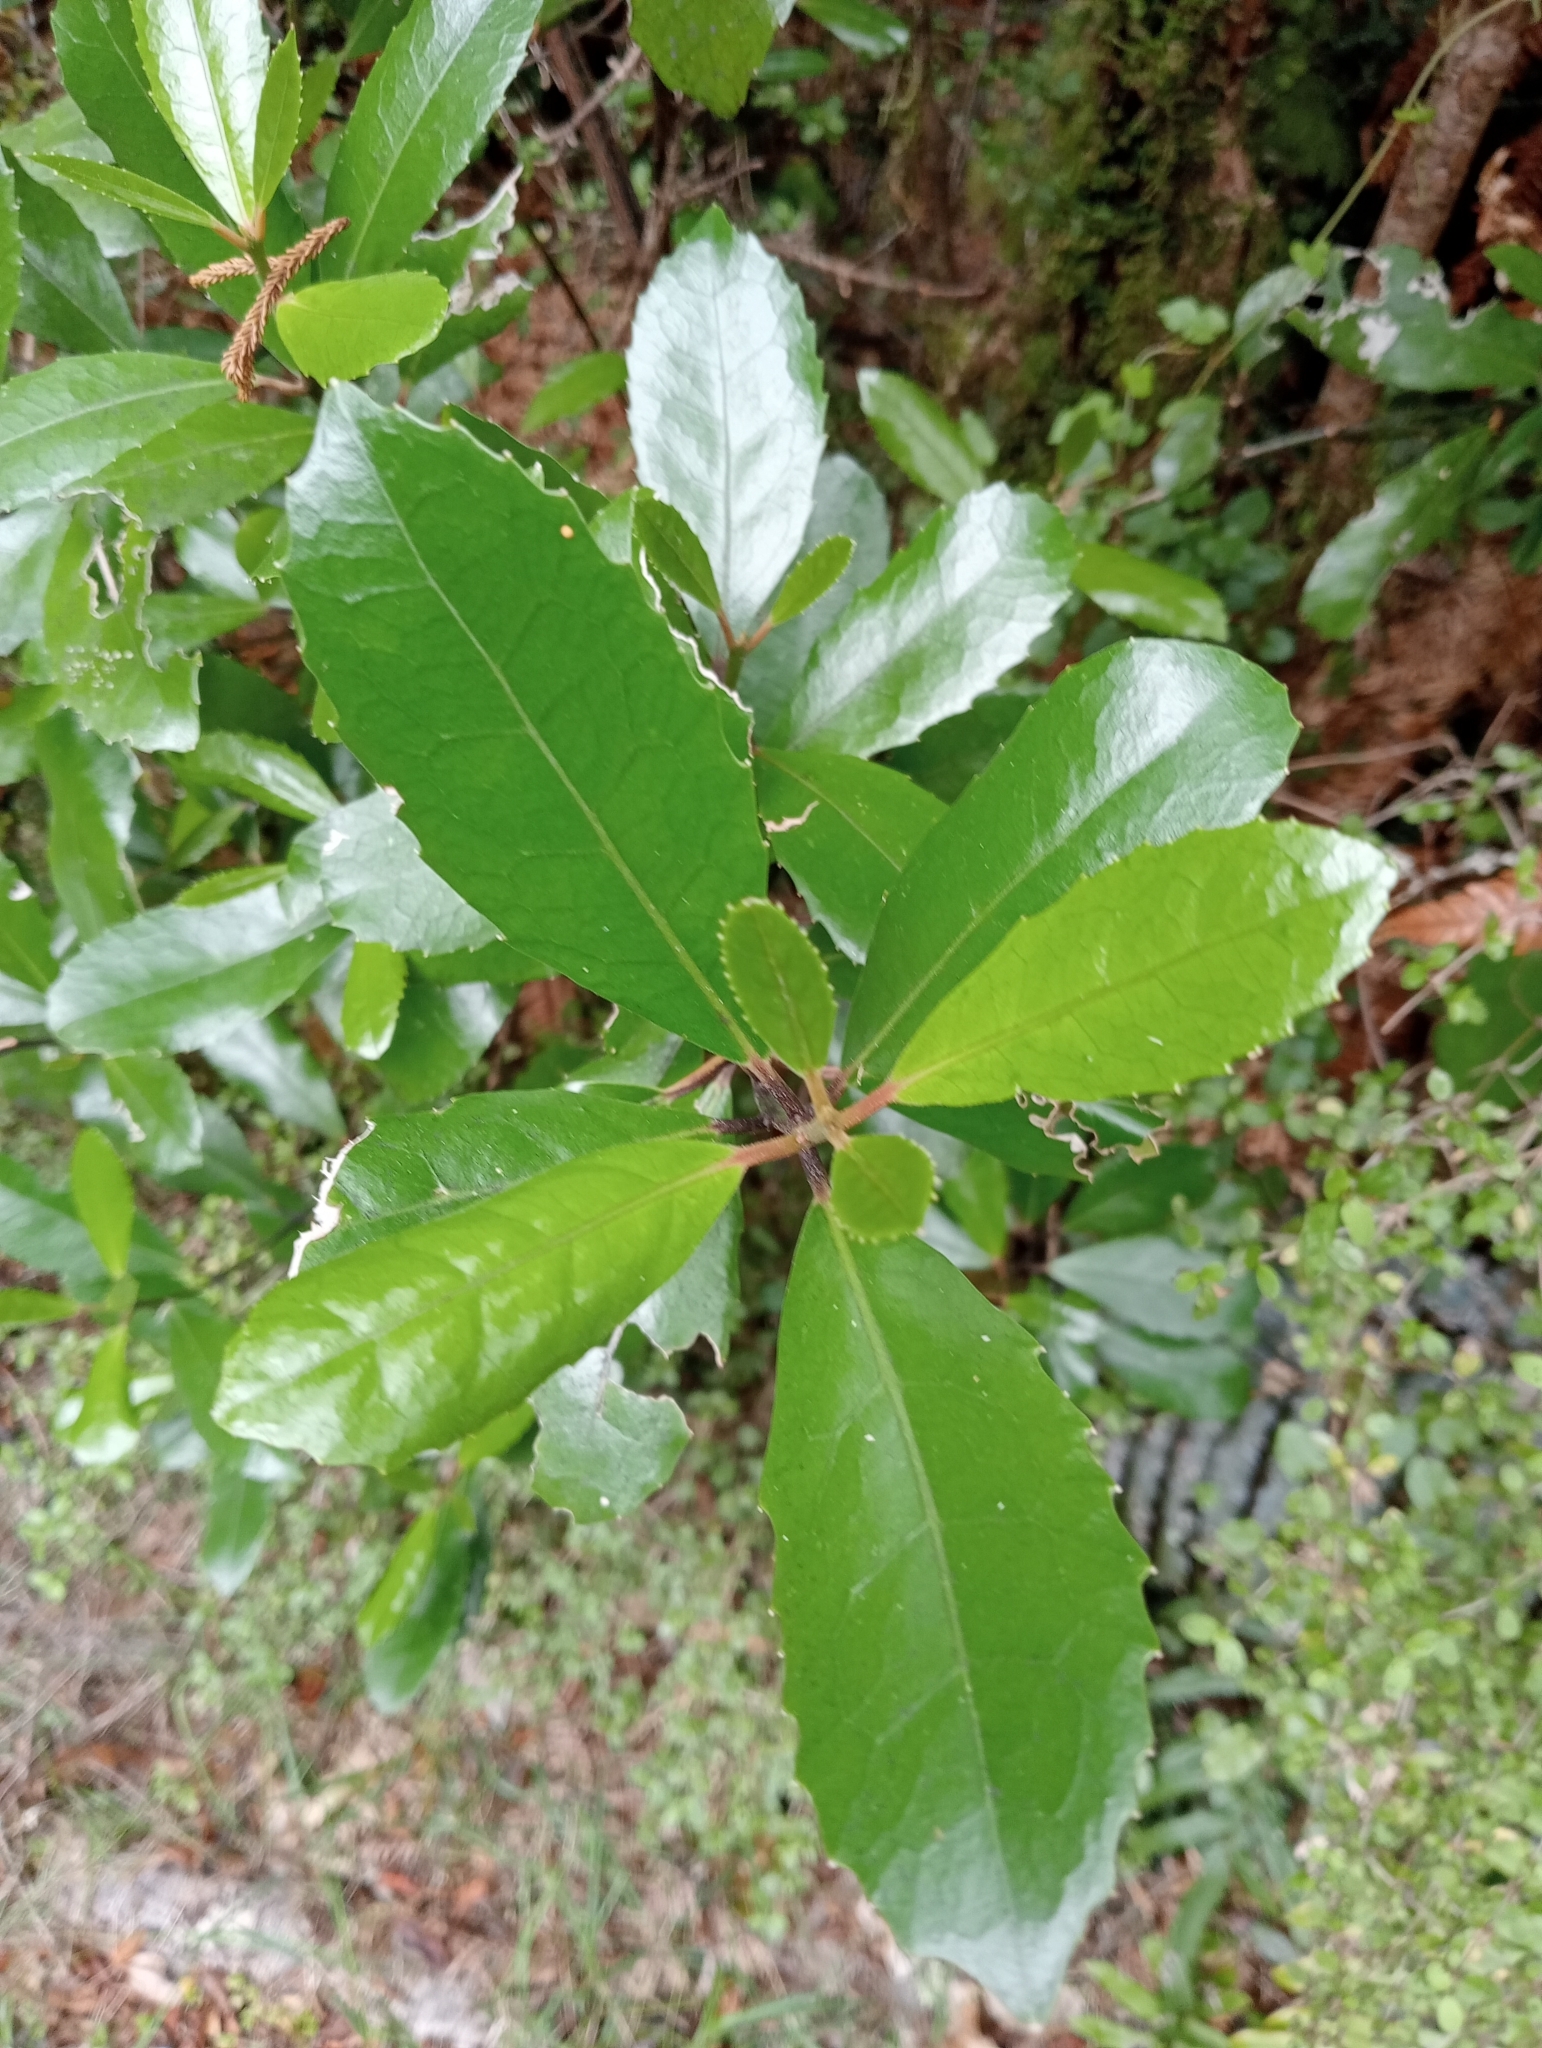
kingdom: Plantae
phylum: Tracheophyta
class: Magnoliopsida
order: Laurales
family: Monimiaceae
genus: Hedycarya
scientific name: Hedycarya arborea
